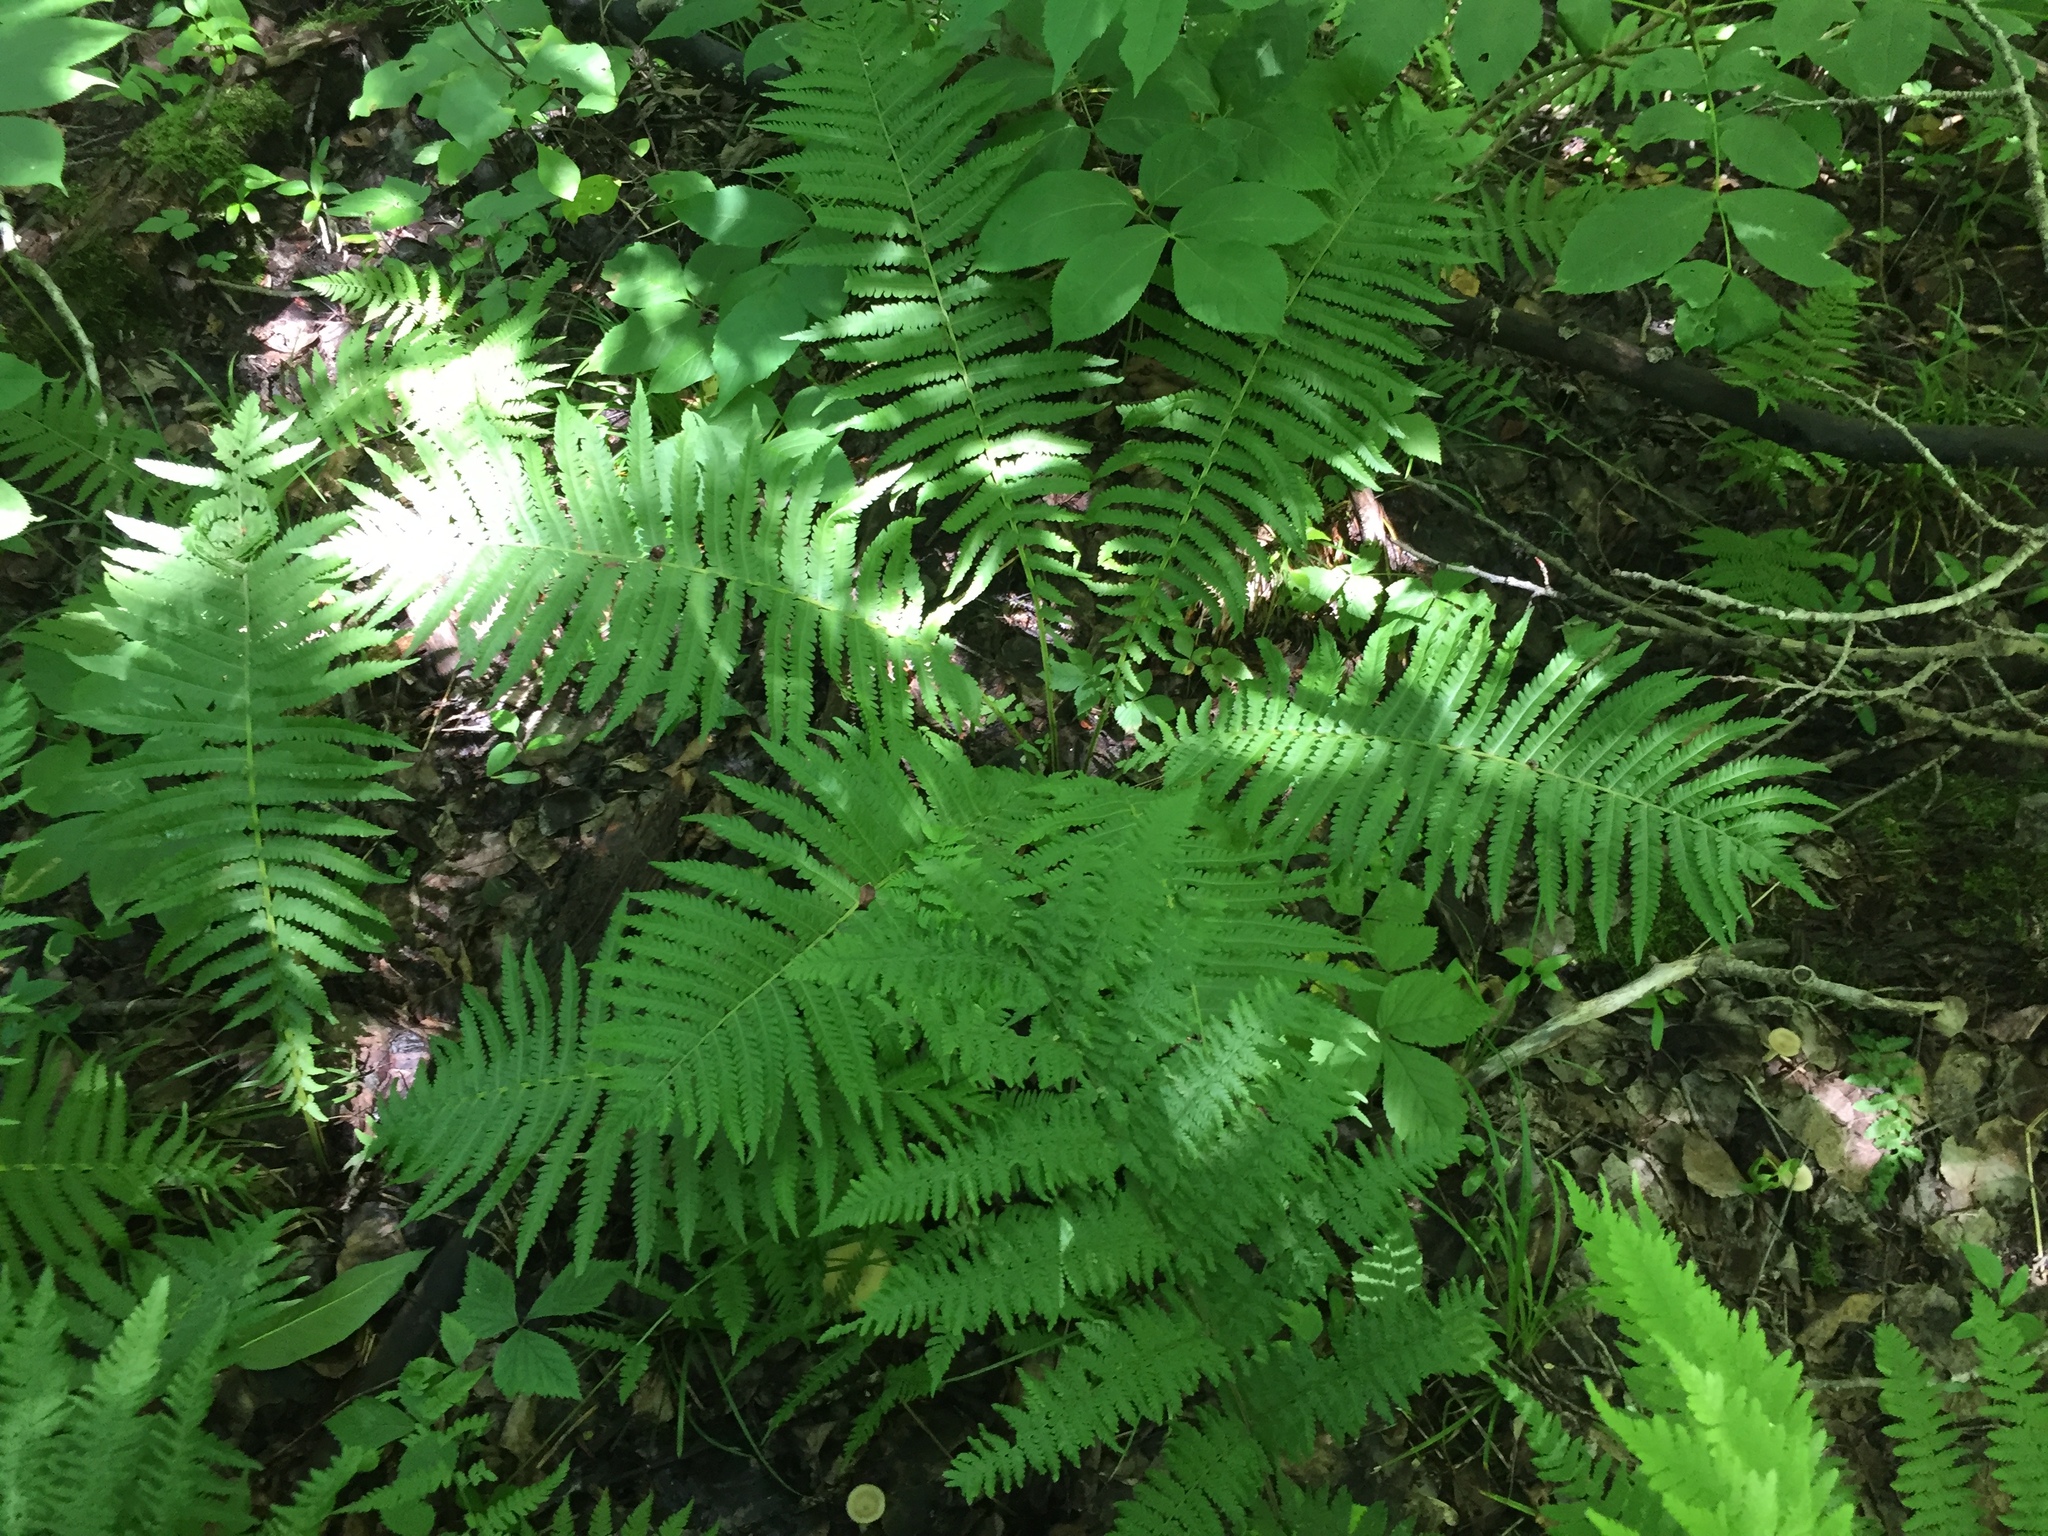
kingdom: Plantae
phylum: Tracheophyta
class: Polypodiopsida
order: Polypodiales
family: Onocleaceae
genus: Matteuccia
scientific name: Matteuccia struthiopteris
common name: Ostrich fern
